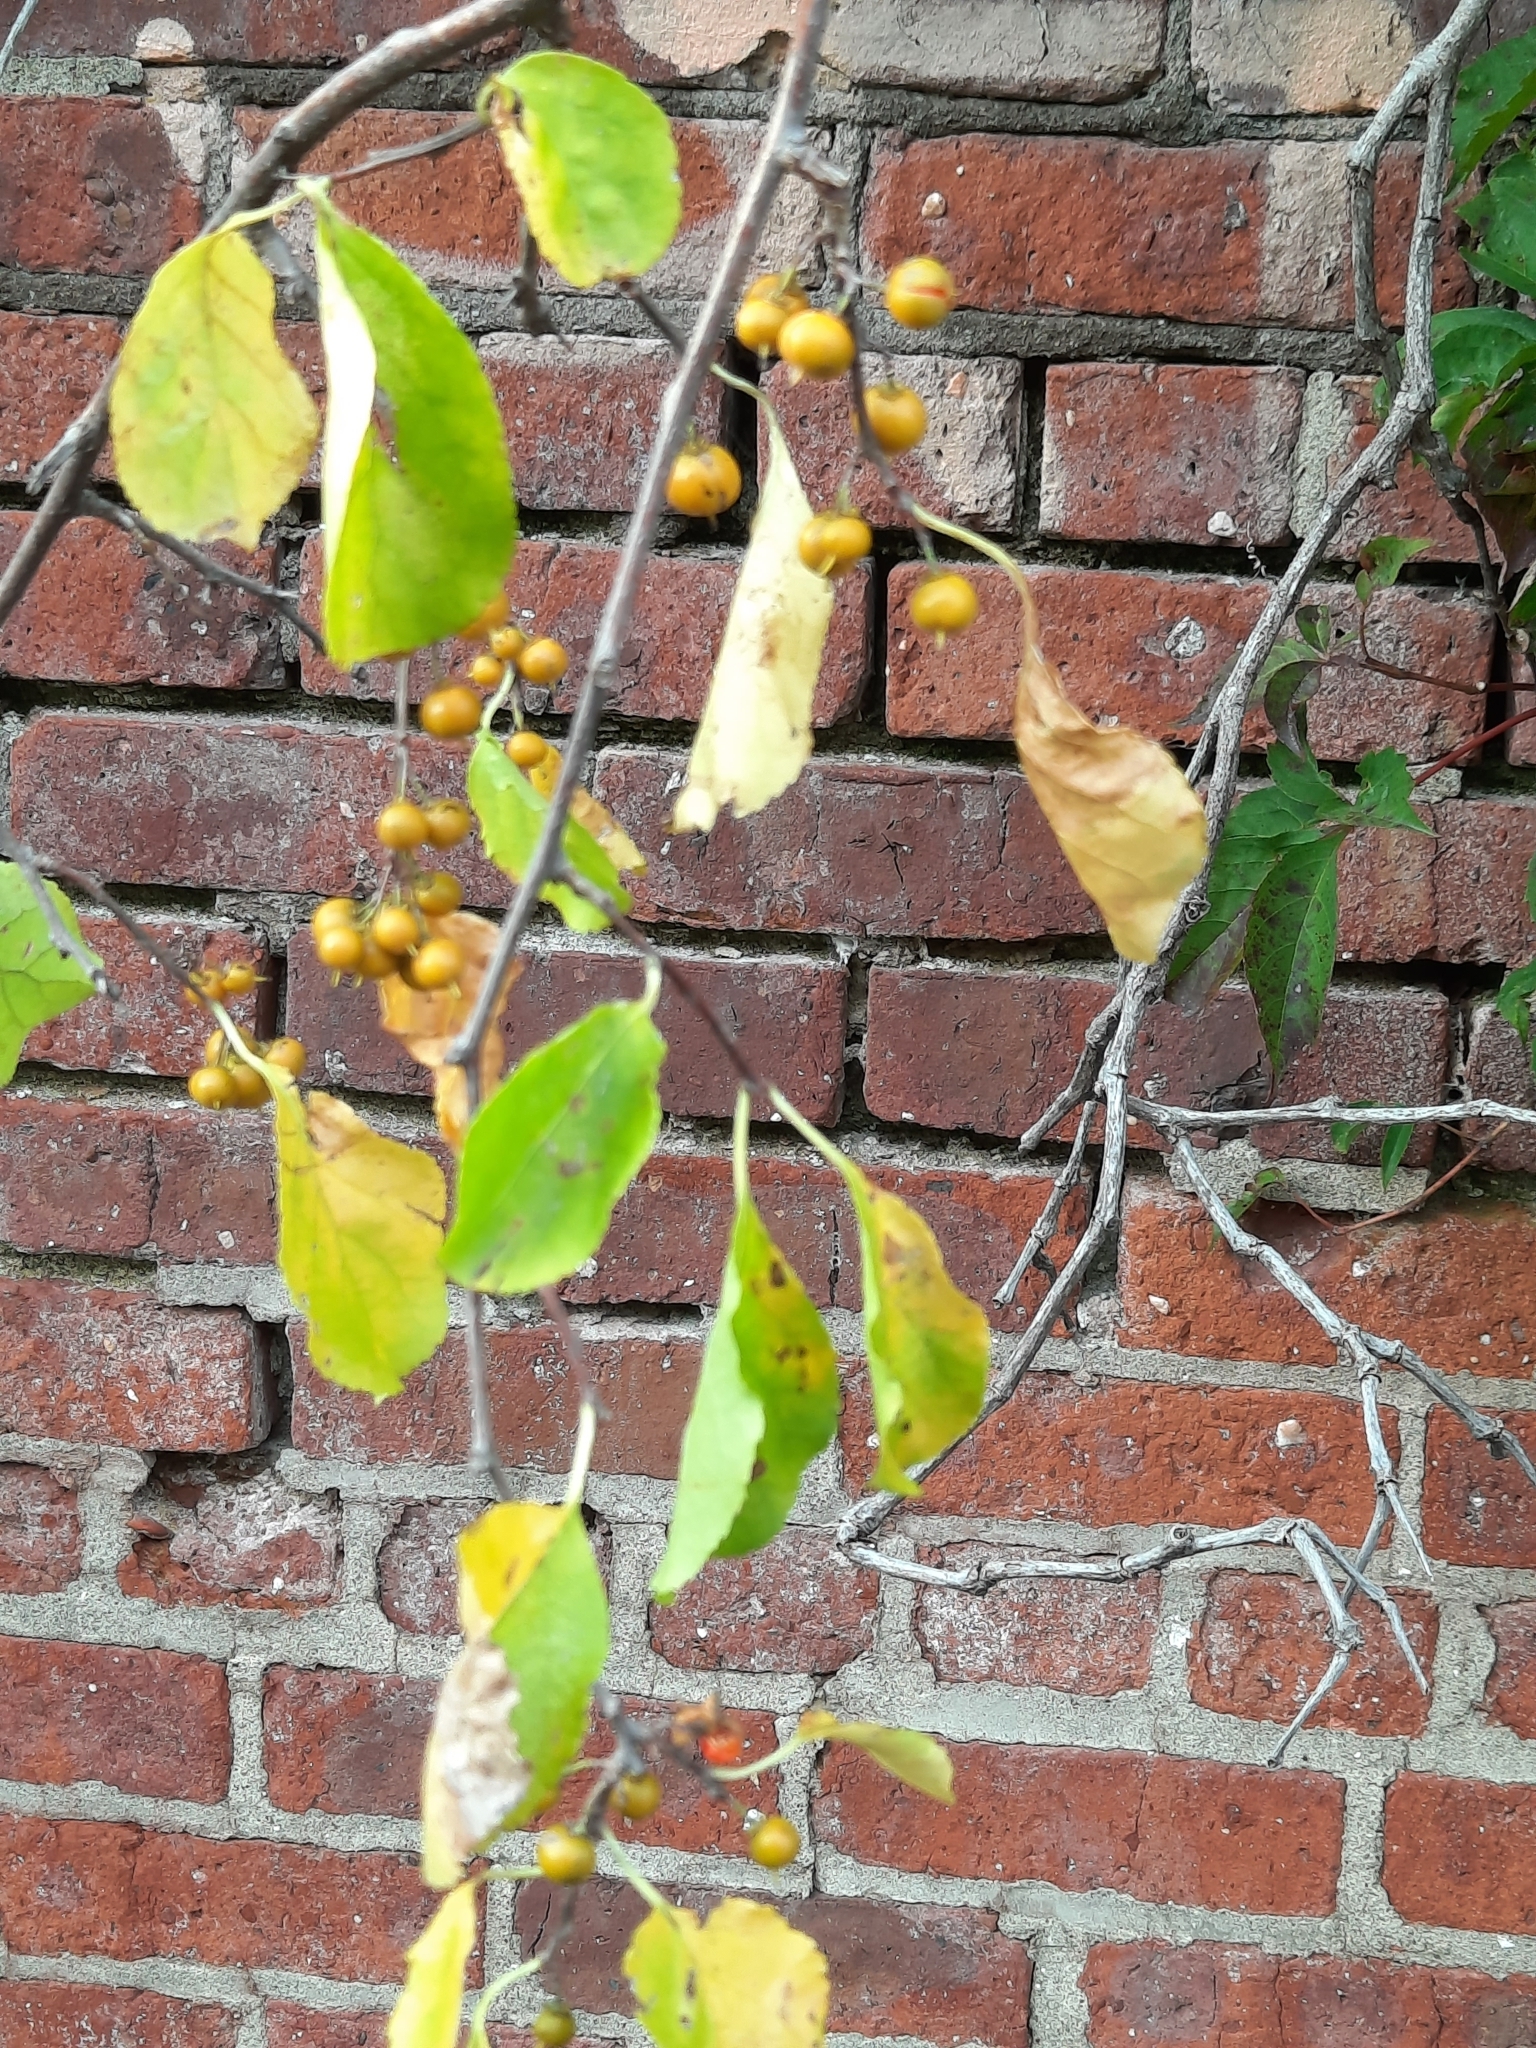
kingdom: Plantae
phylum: Tracheophyta
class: Magnoliopsida
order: Celastrales
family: Celastraceae
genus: Celastrus
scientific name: Celastrus orbiculatus
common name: Oriental bittersweet
